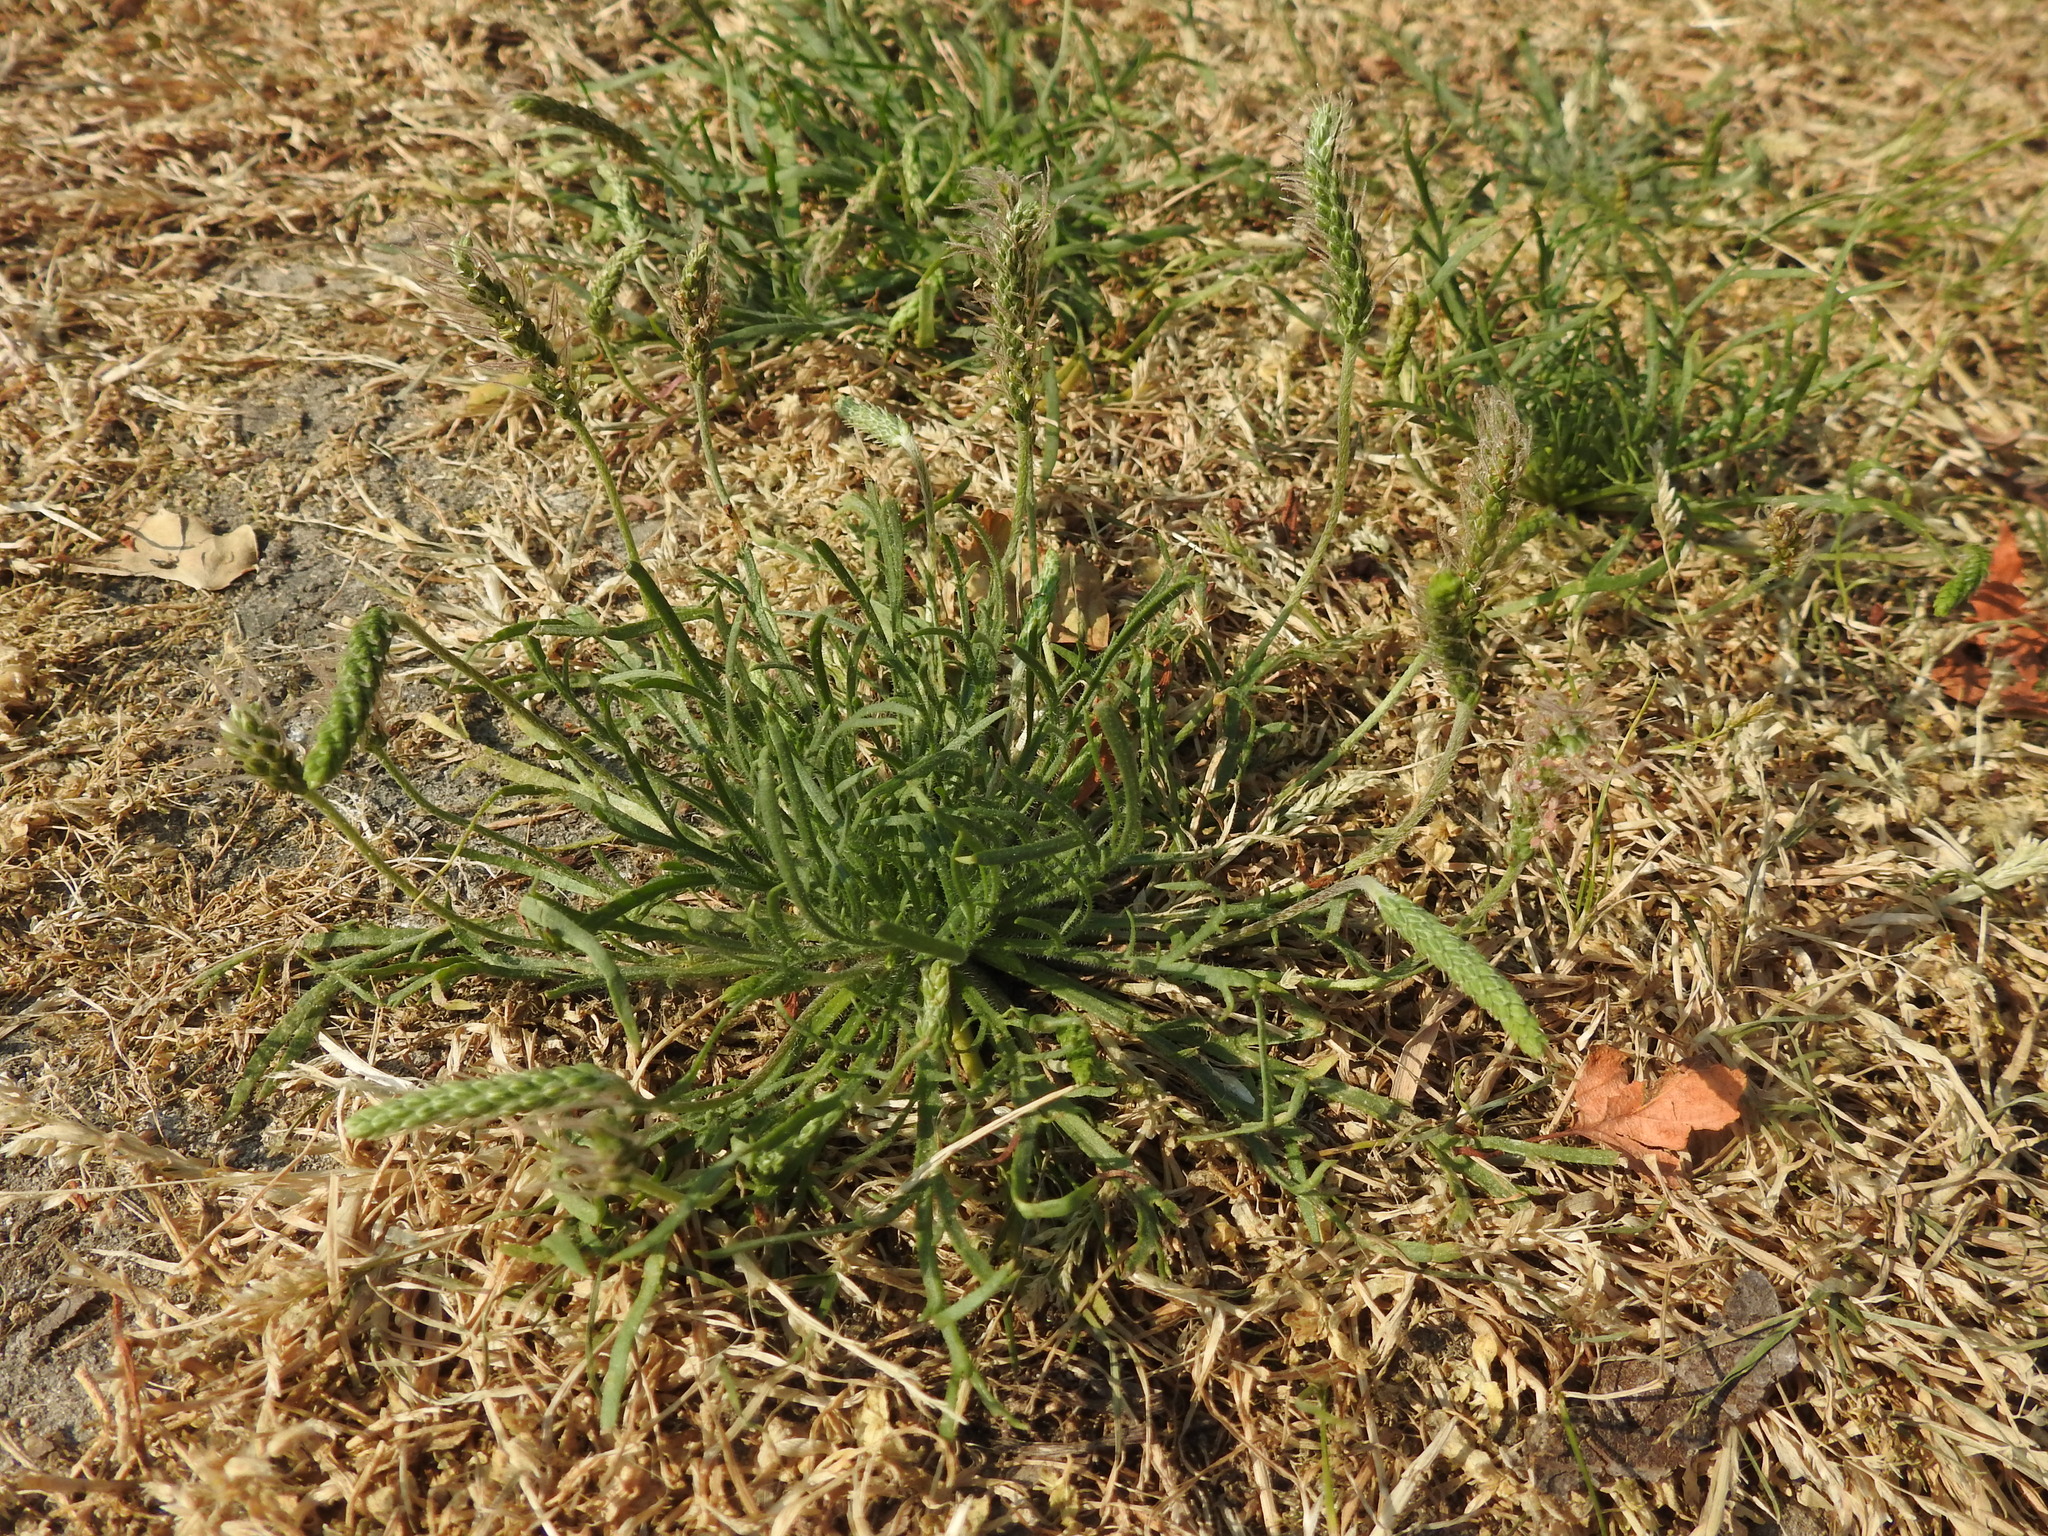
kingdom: Plantae
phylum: Tracheophyta
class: Magnoliopsida
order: Lamiales
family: Plantaginaceae
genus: Plantago
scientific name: Plantago coronopus
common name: Buck's-horn plantain
